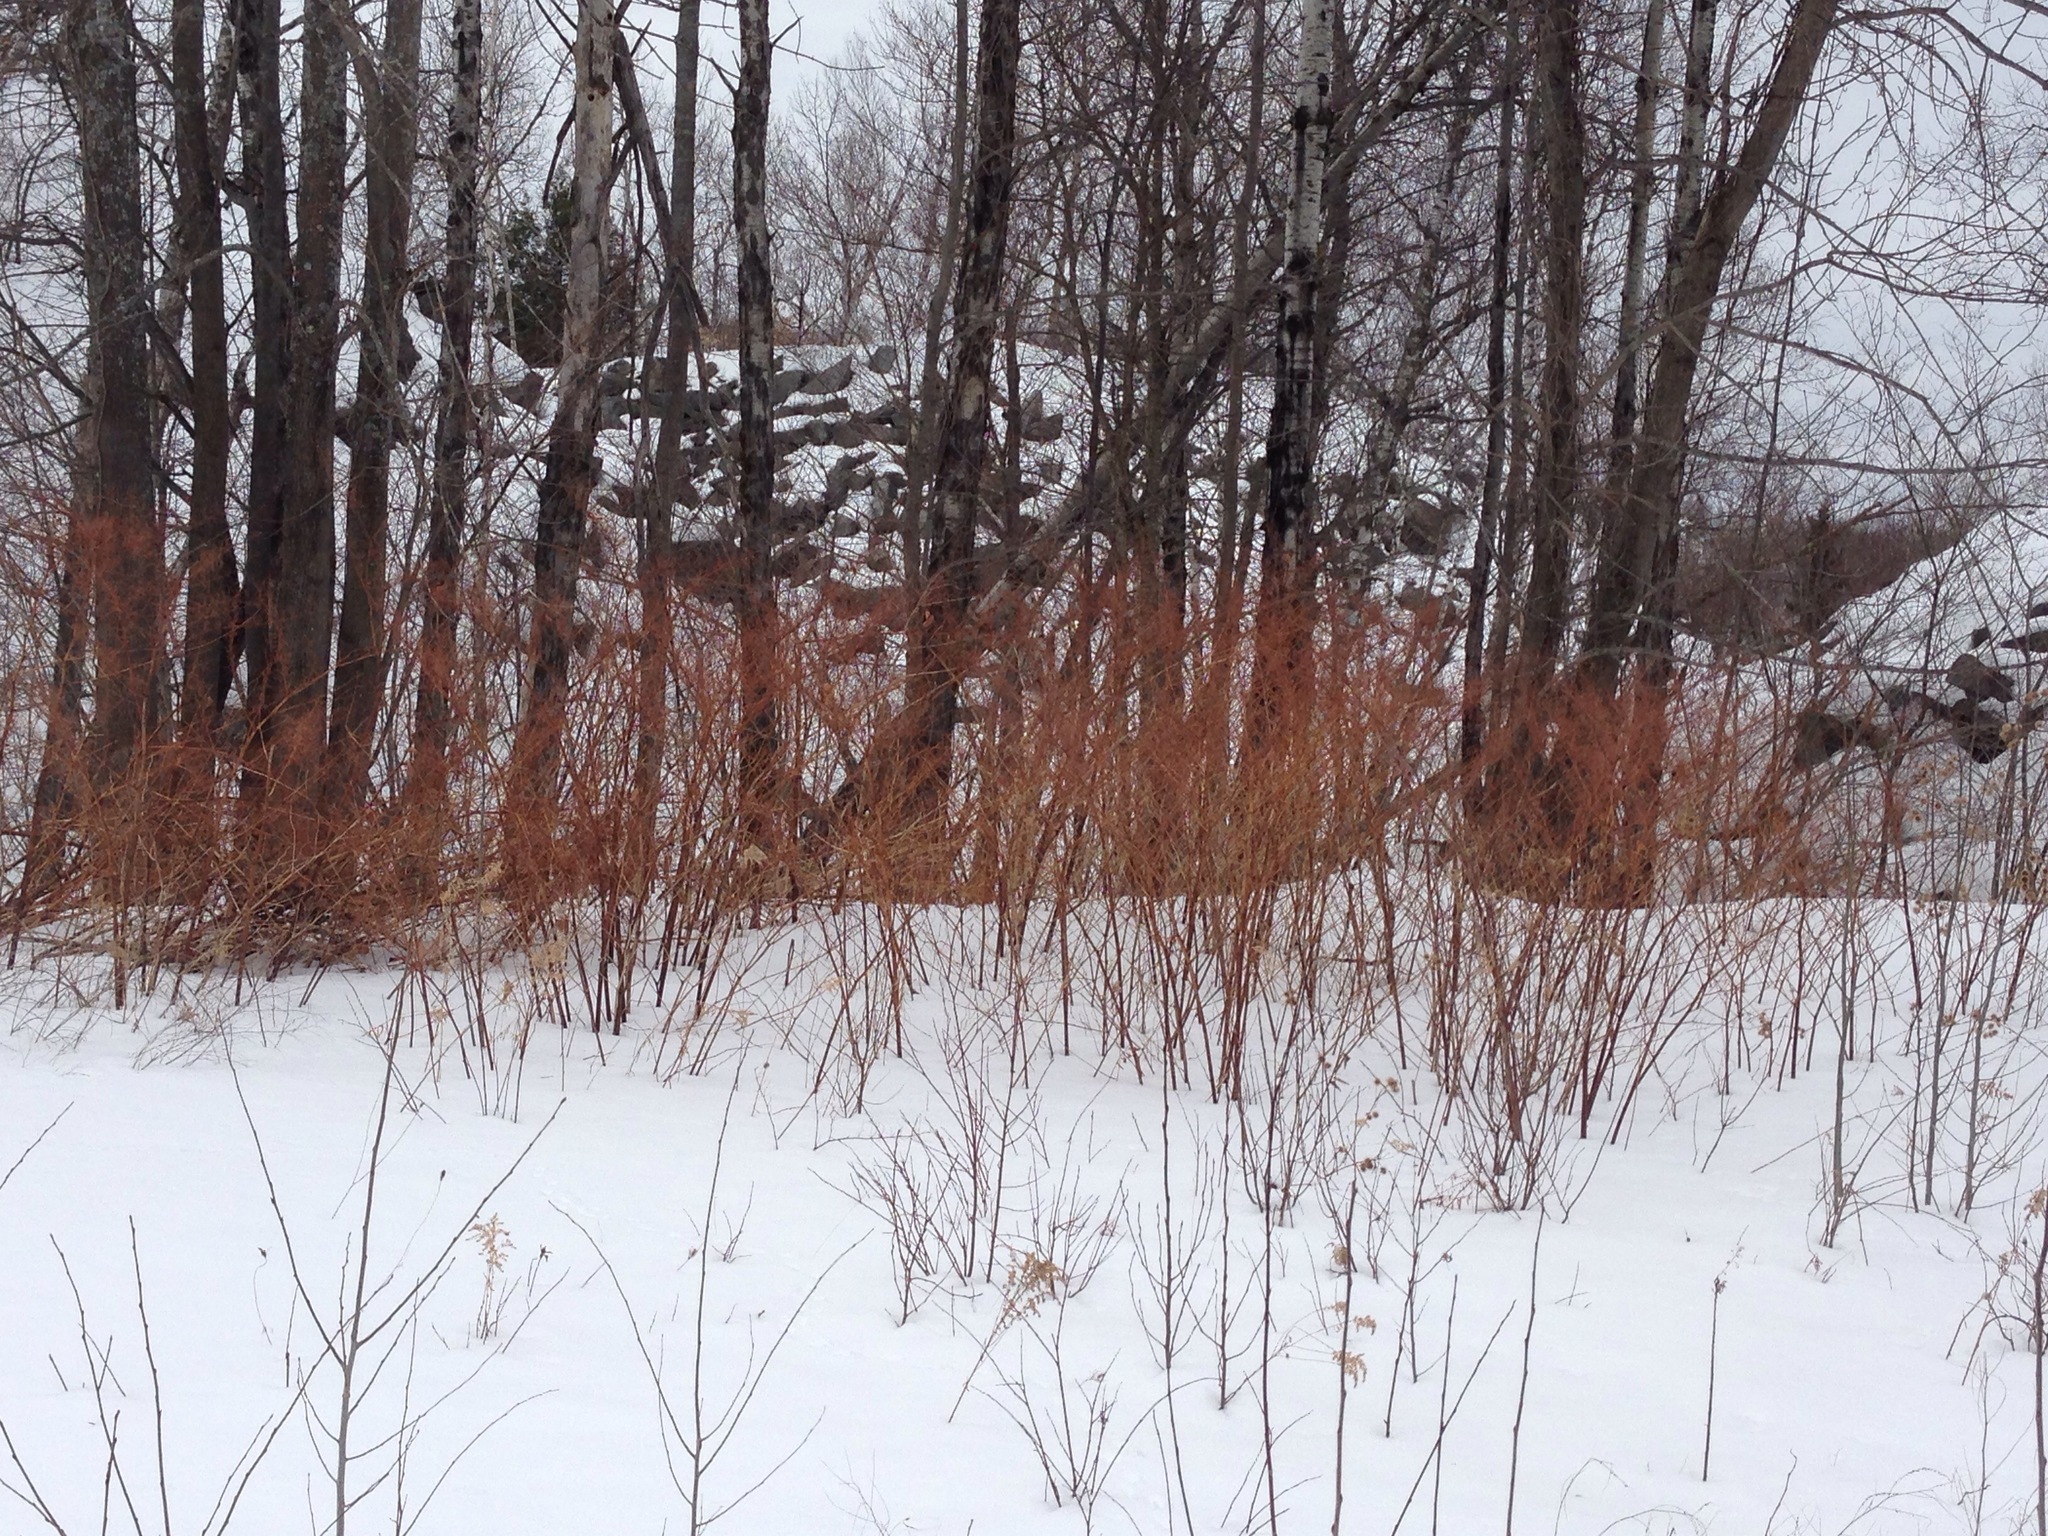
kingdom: Plantae
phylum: Tracheophyta
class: Magnoliopsida
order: Caryophyllales
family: Polygonaceae
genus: Reynoutria
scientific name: Reynoutria japonica
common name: Japanese knotweed
